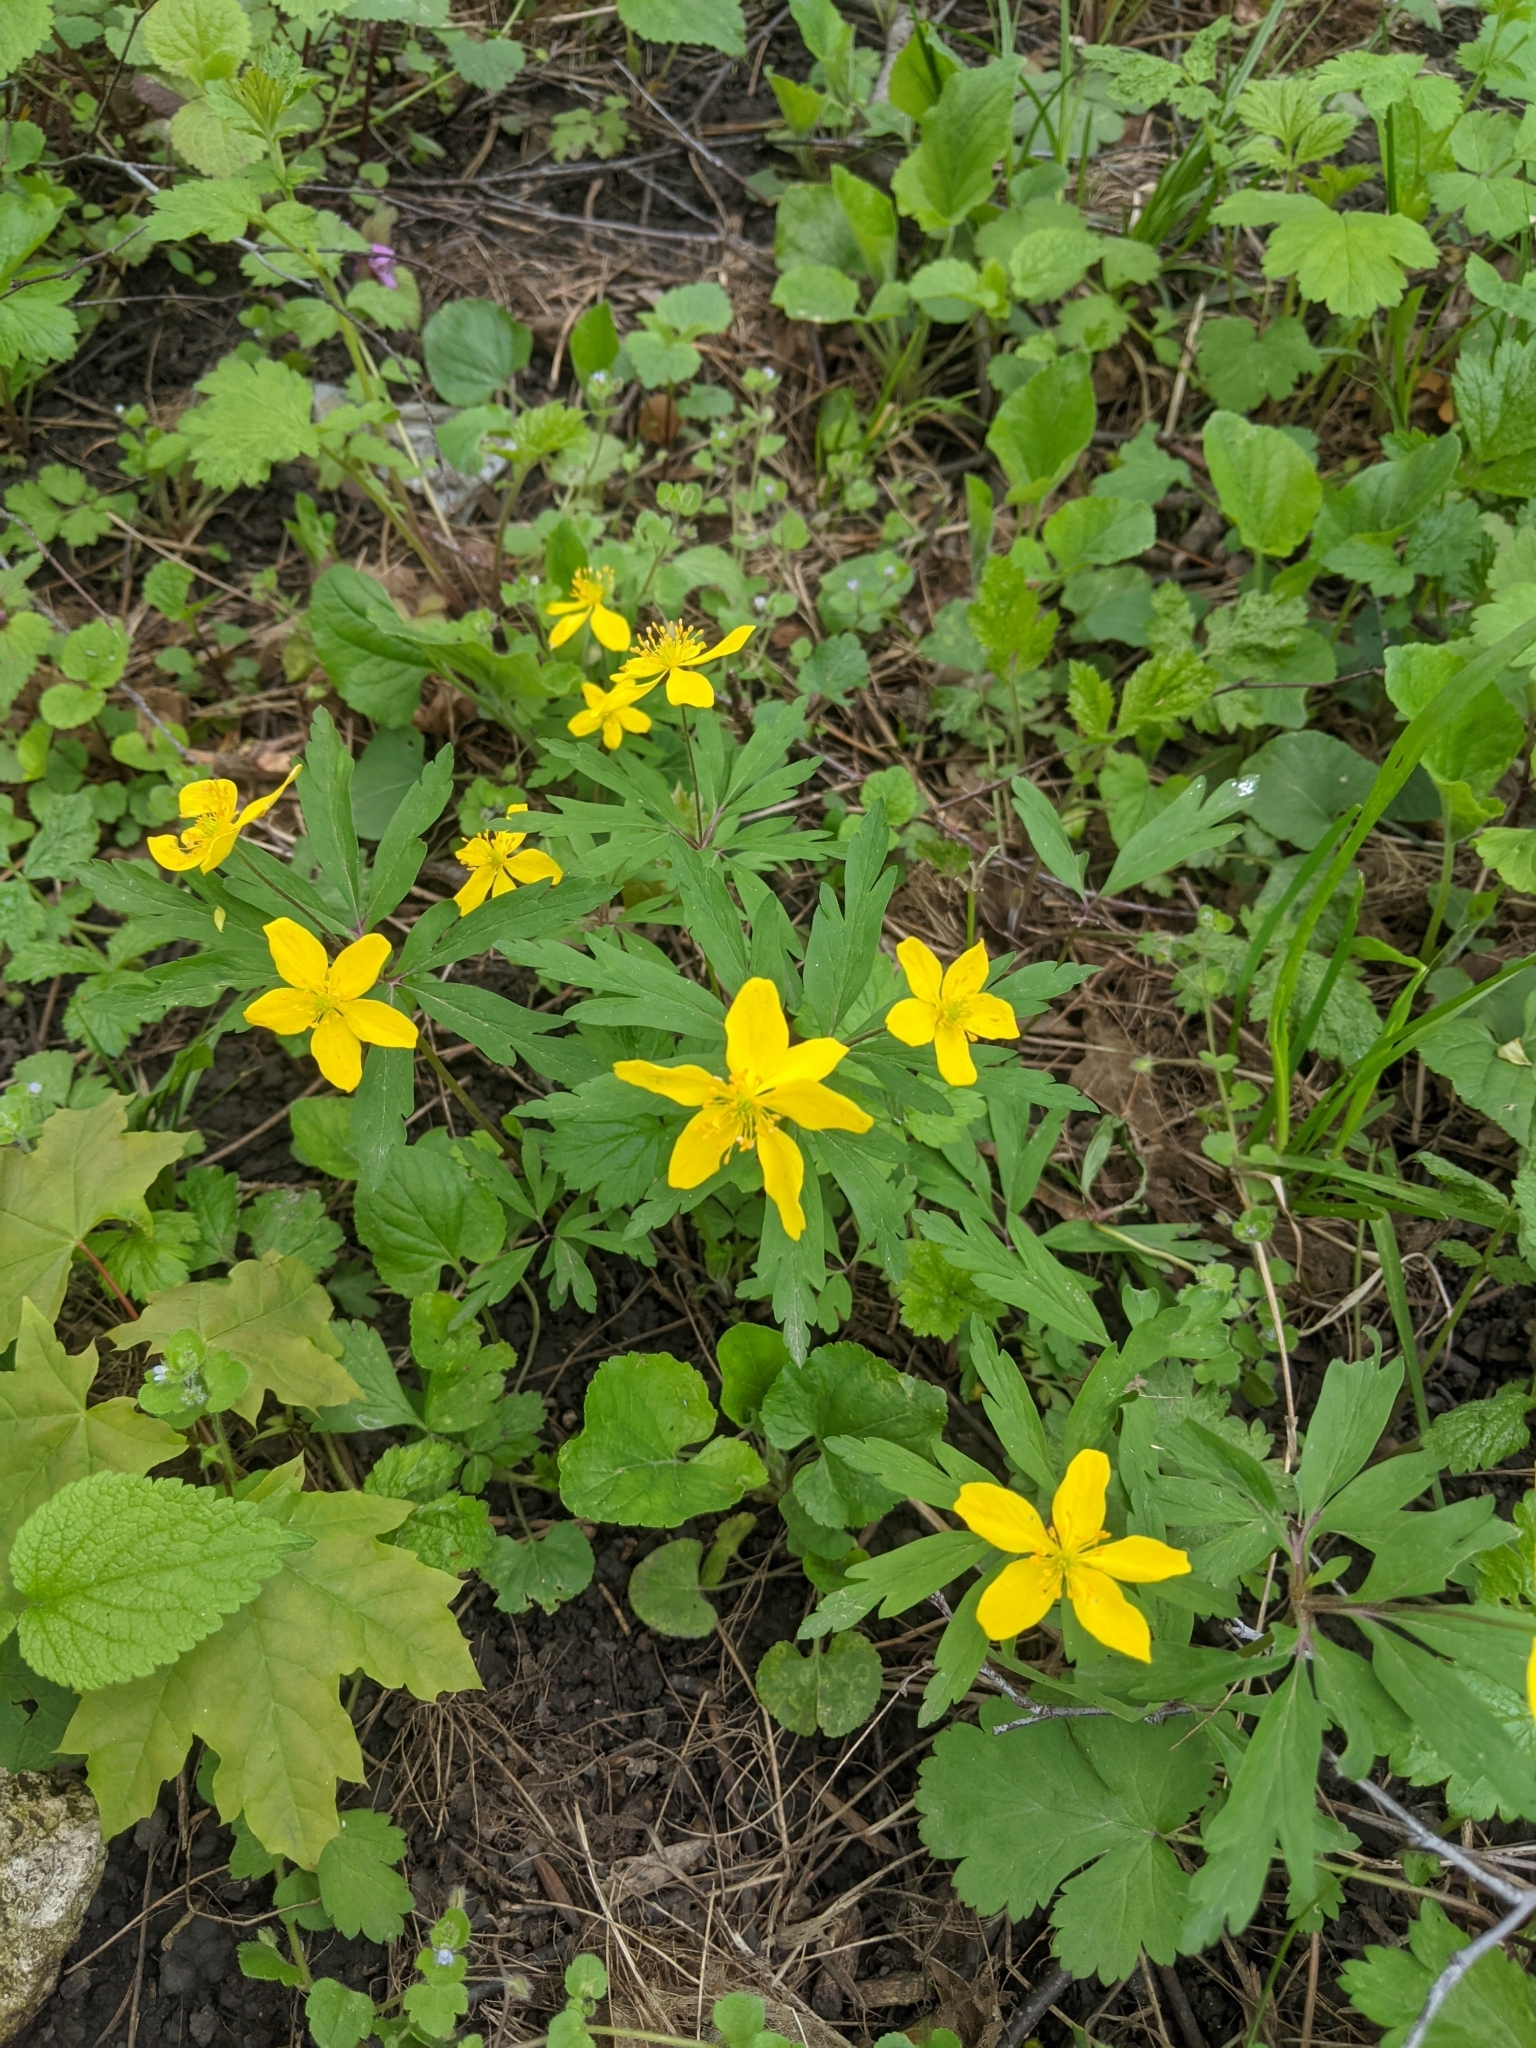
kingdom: Plantae
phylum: Tracheophyta
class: Magnoliopsida
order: Ranunculales
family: Ranunculaceae
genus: Anemone
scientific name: Anemone ranunculoides
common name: Yellow anemone
